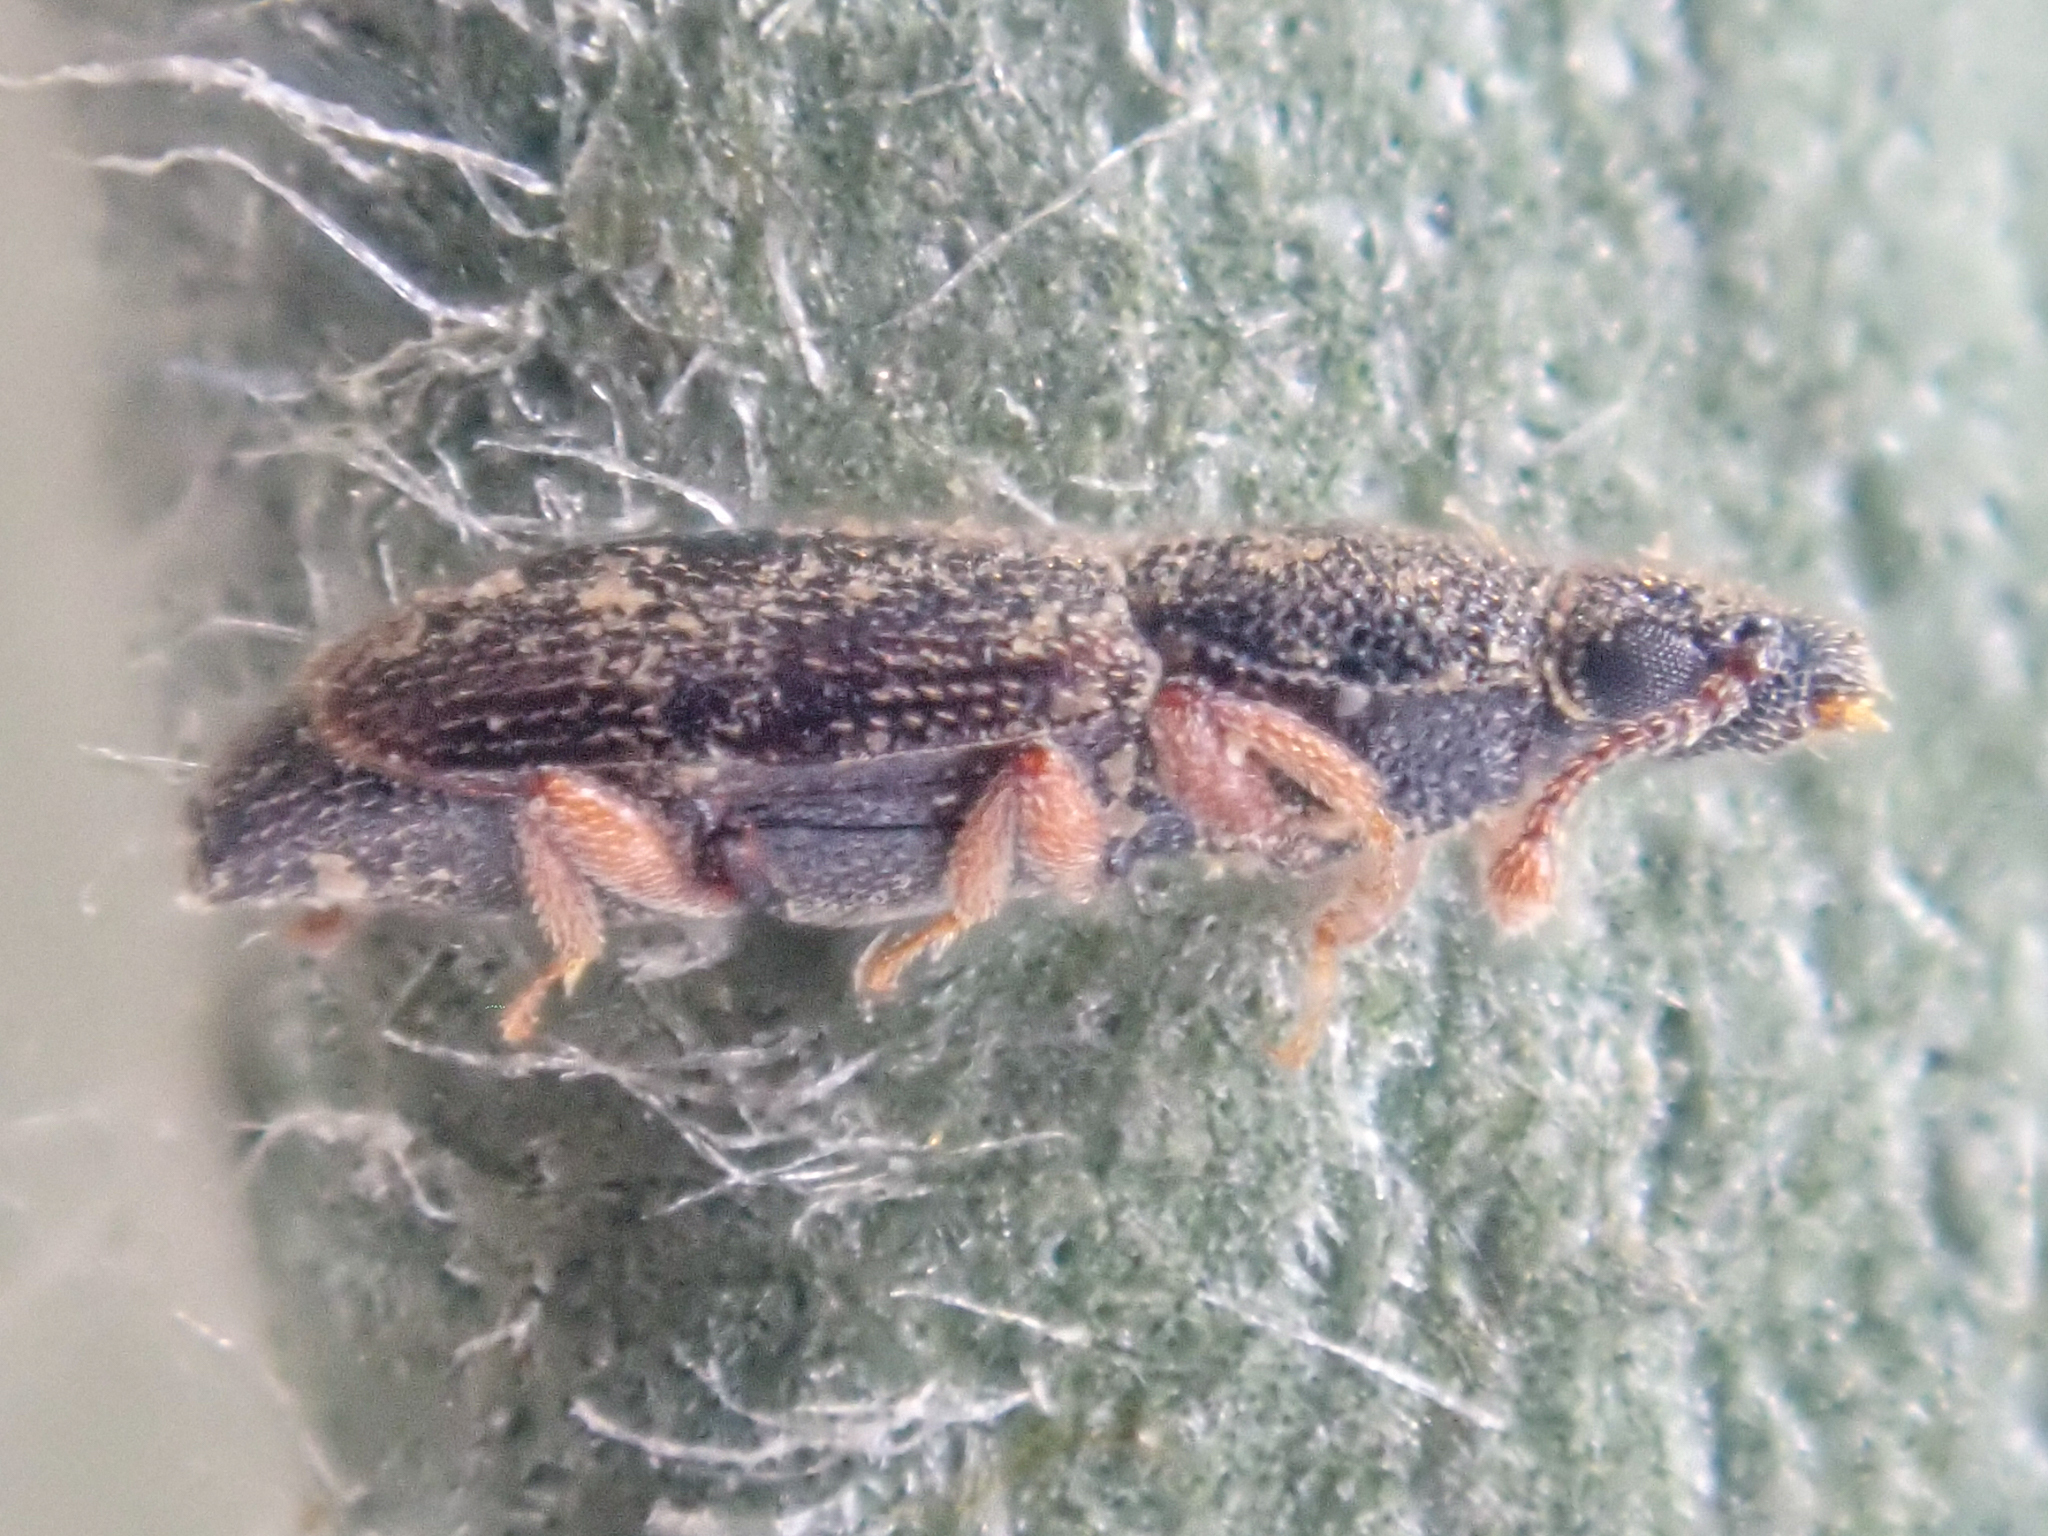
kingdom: Animalia
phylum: Arthropoda
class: Insecta
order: Coleoptera
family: Monotomidae
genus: Monotoma
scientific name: Monotoma picipes
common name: Root-eating beetle
